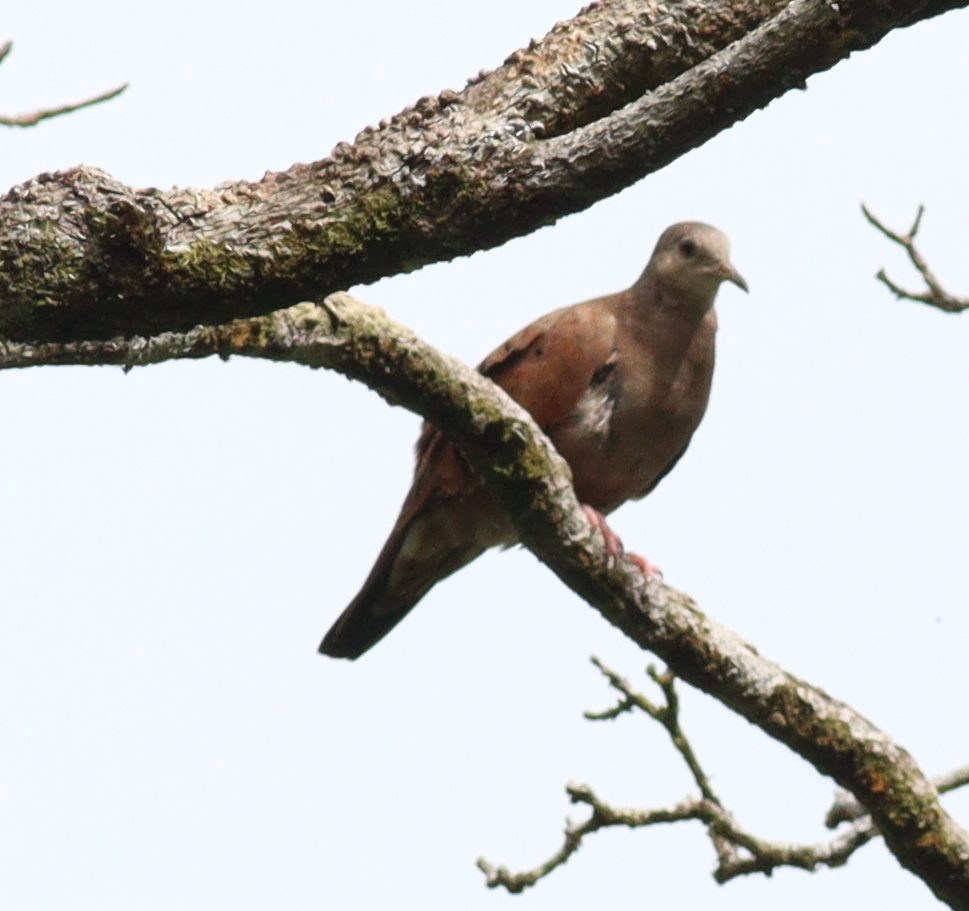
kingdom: Animalia
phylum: Chordata
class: Aves
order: Columbiformes
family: Columbidae
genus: Columbina
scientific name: Columbina talpacoti
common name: Ruddy ground dove
